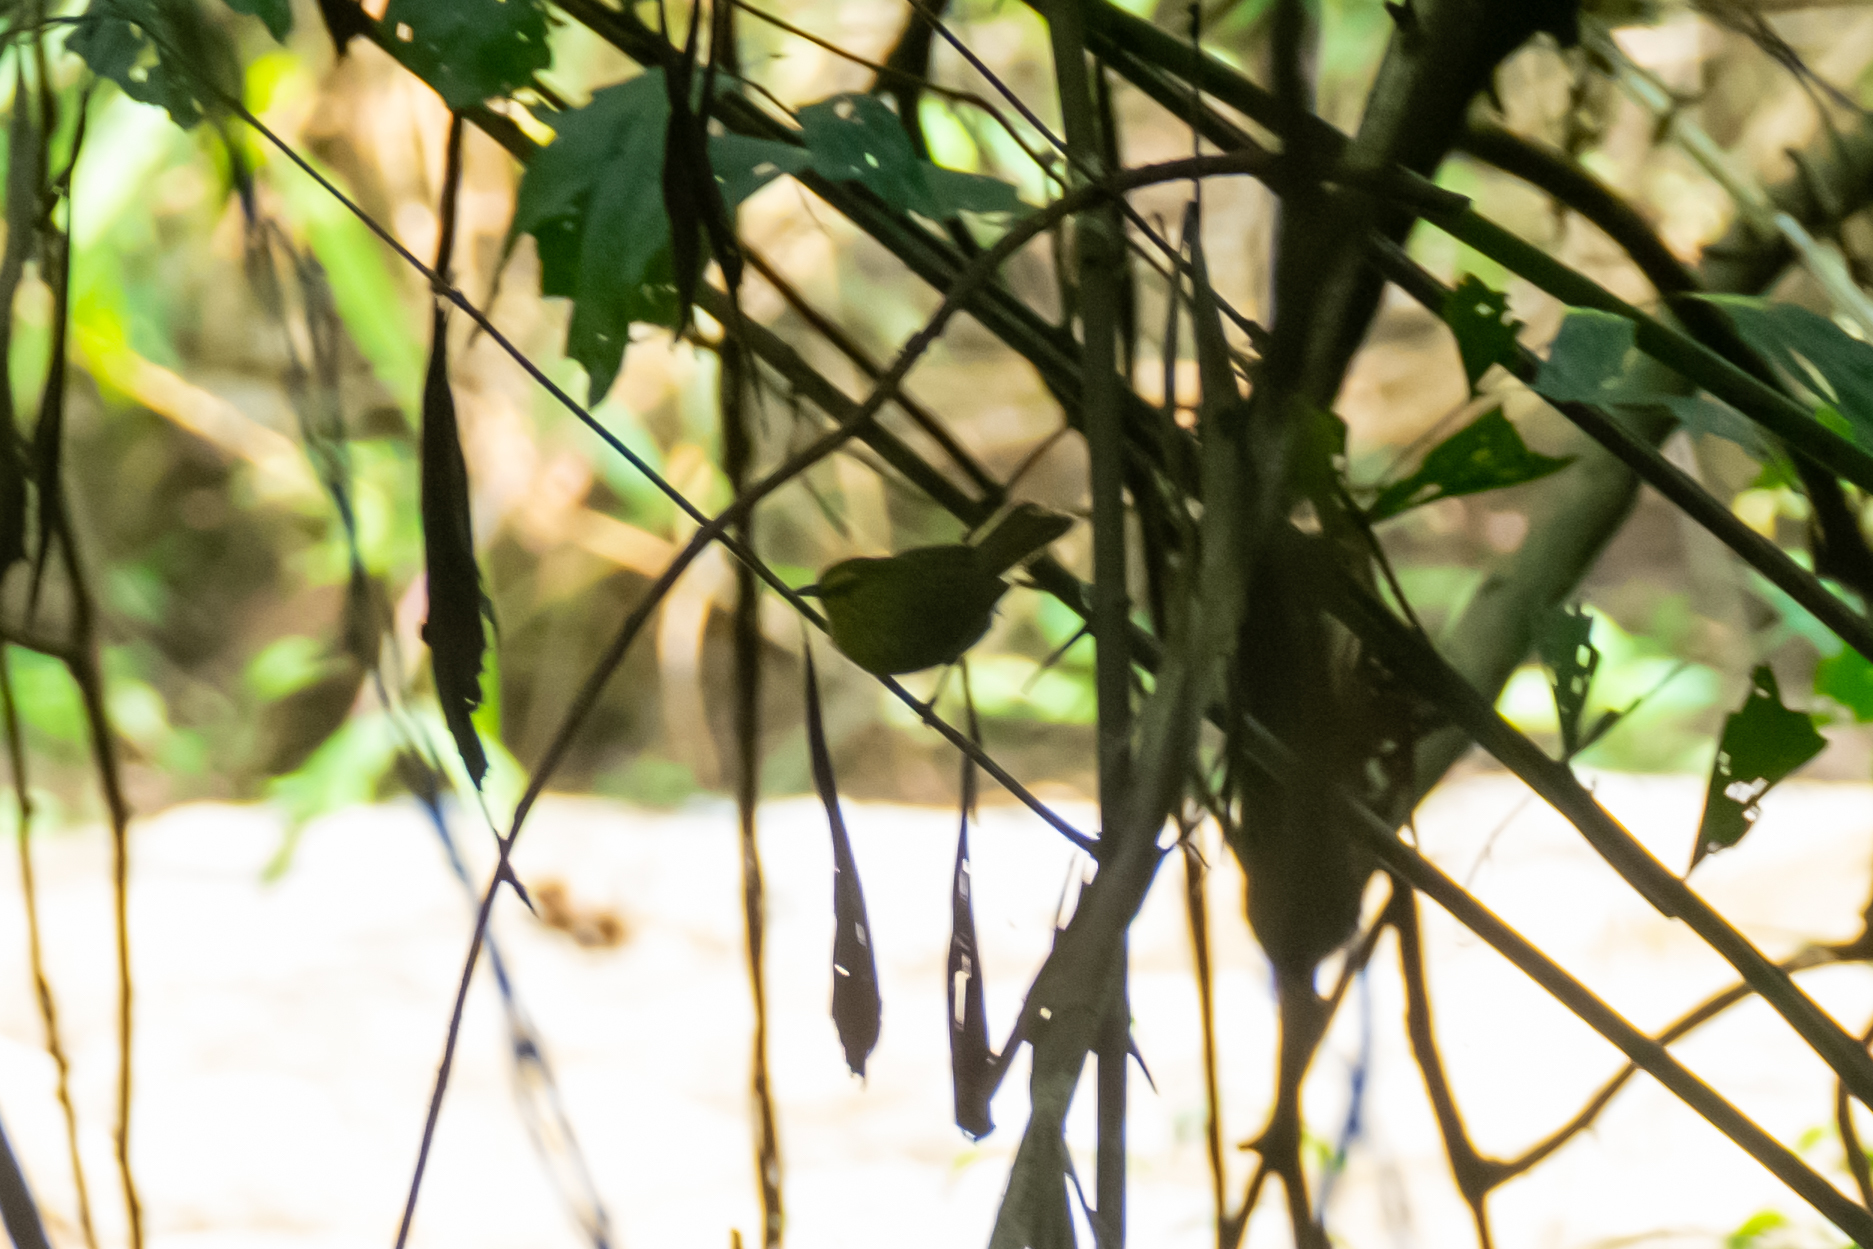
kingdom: Animalia
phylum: Chordata
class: Aves
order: Passeriformes
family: Timaliidae
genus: Macronus
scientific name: Macronus gularis
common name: Striped tit-babbler
